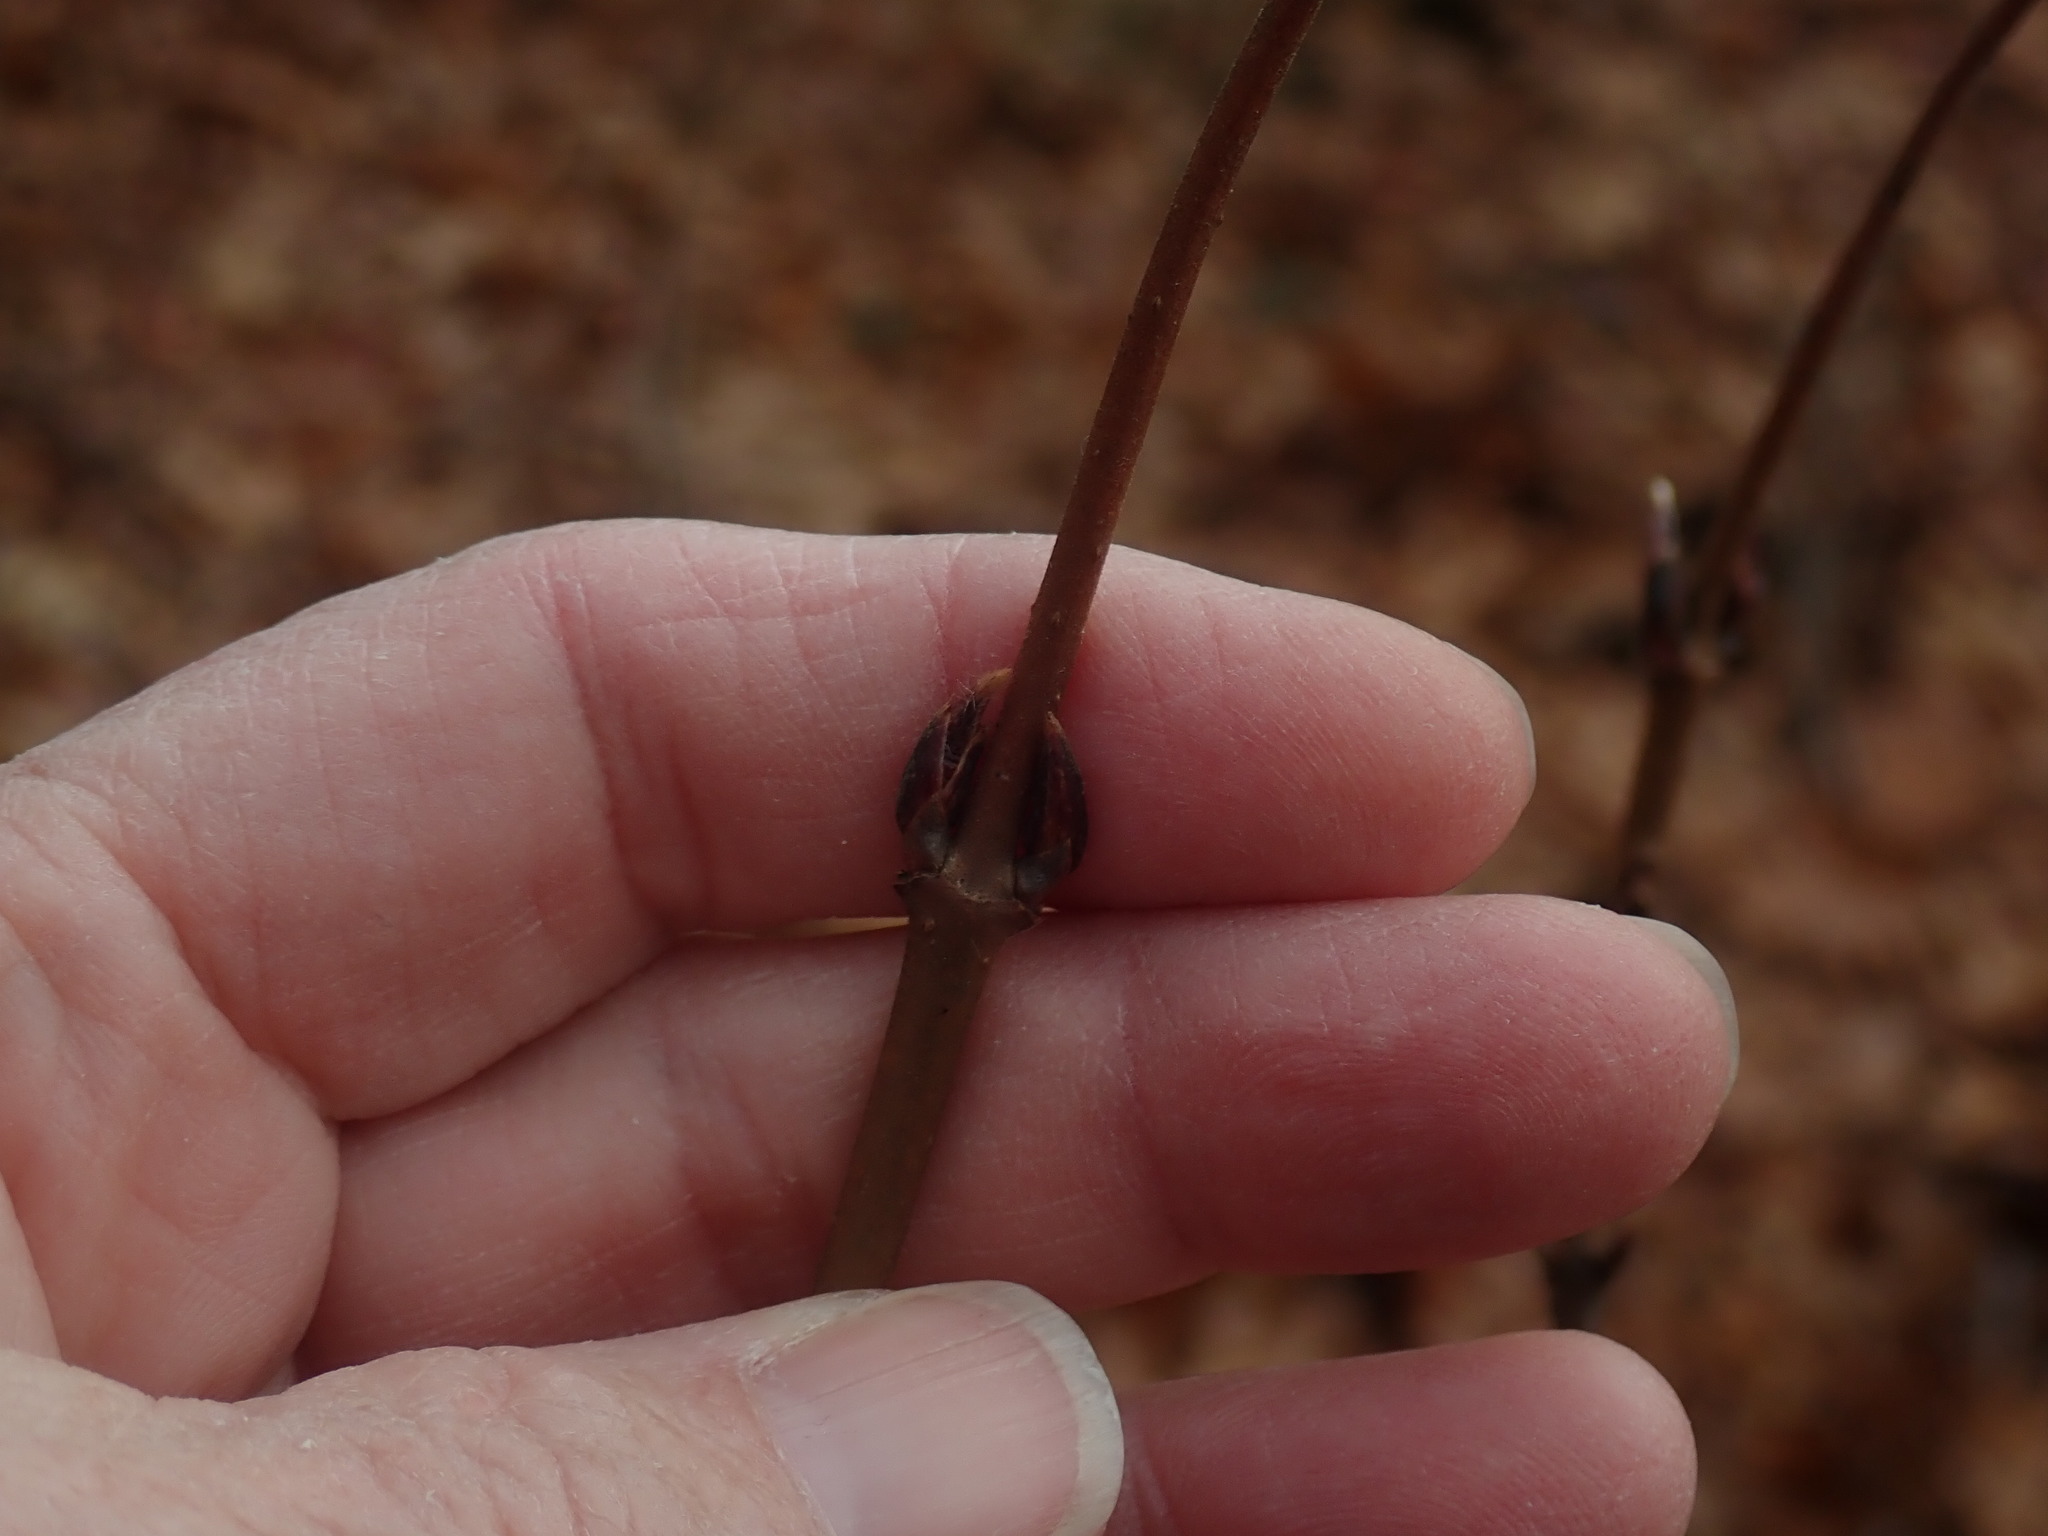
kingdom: Plantae
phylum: Tracheophyta
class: Magnoliopsida
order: Dipsacales
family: Viburnaceae
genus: Viburnum
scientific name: Viburnum acerifolium
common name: Dockmackie
